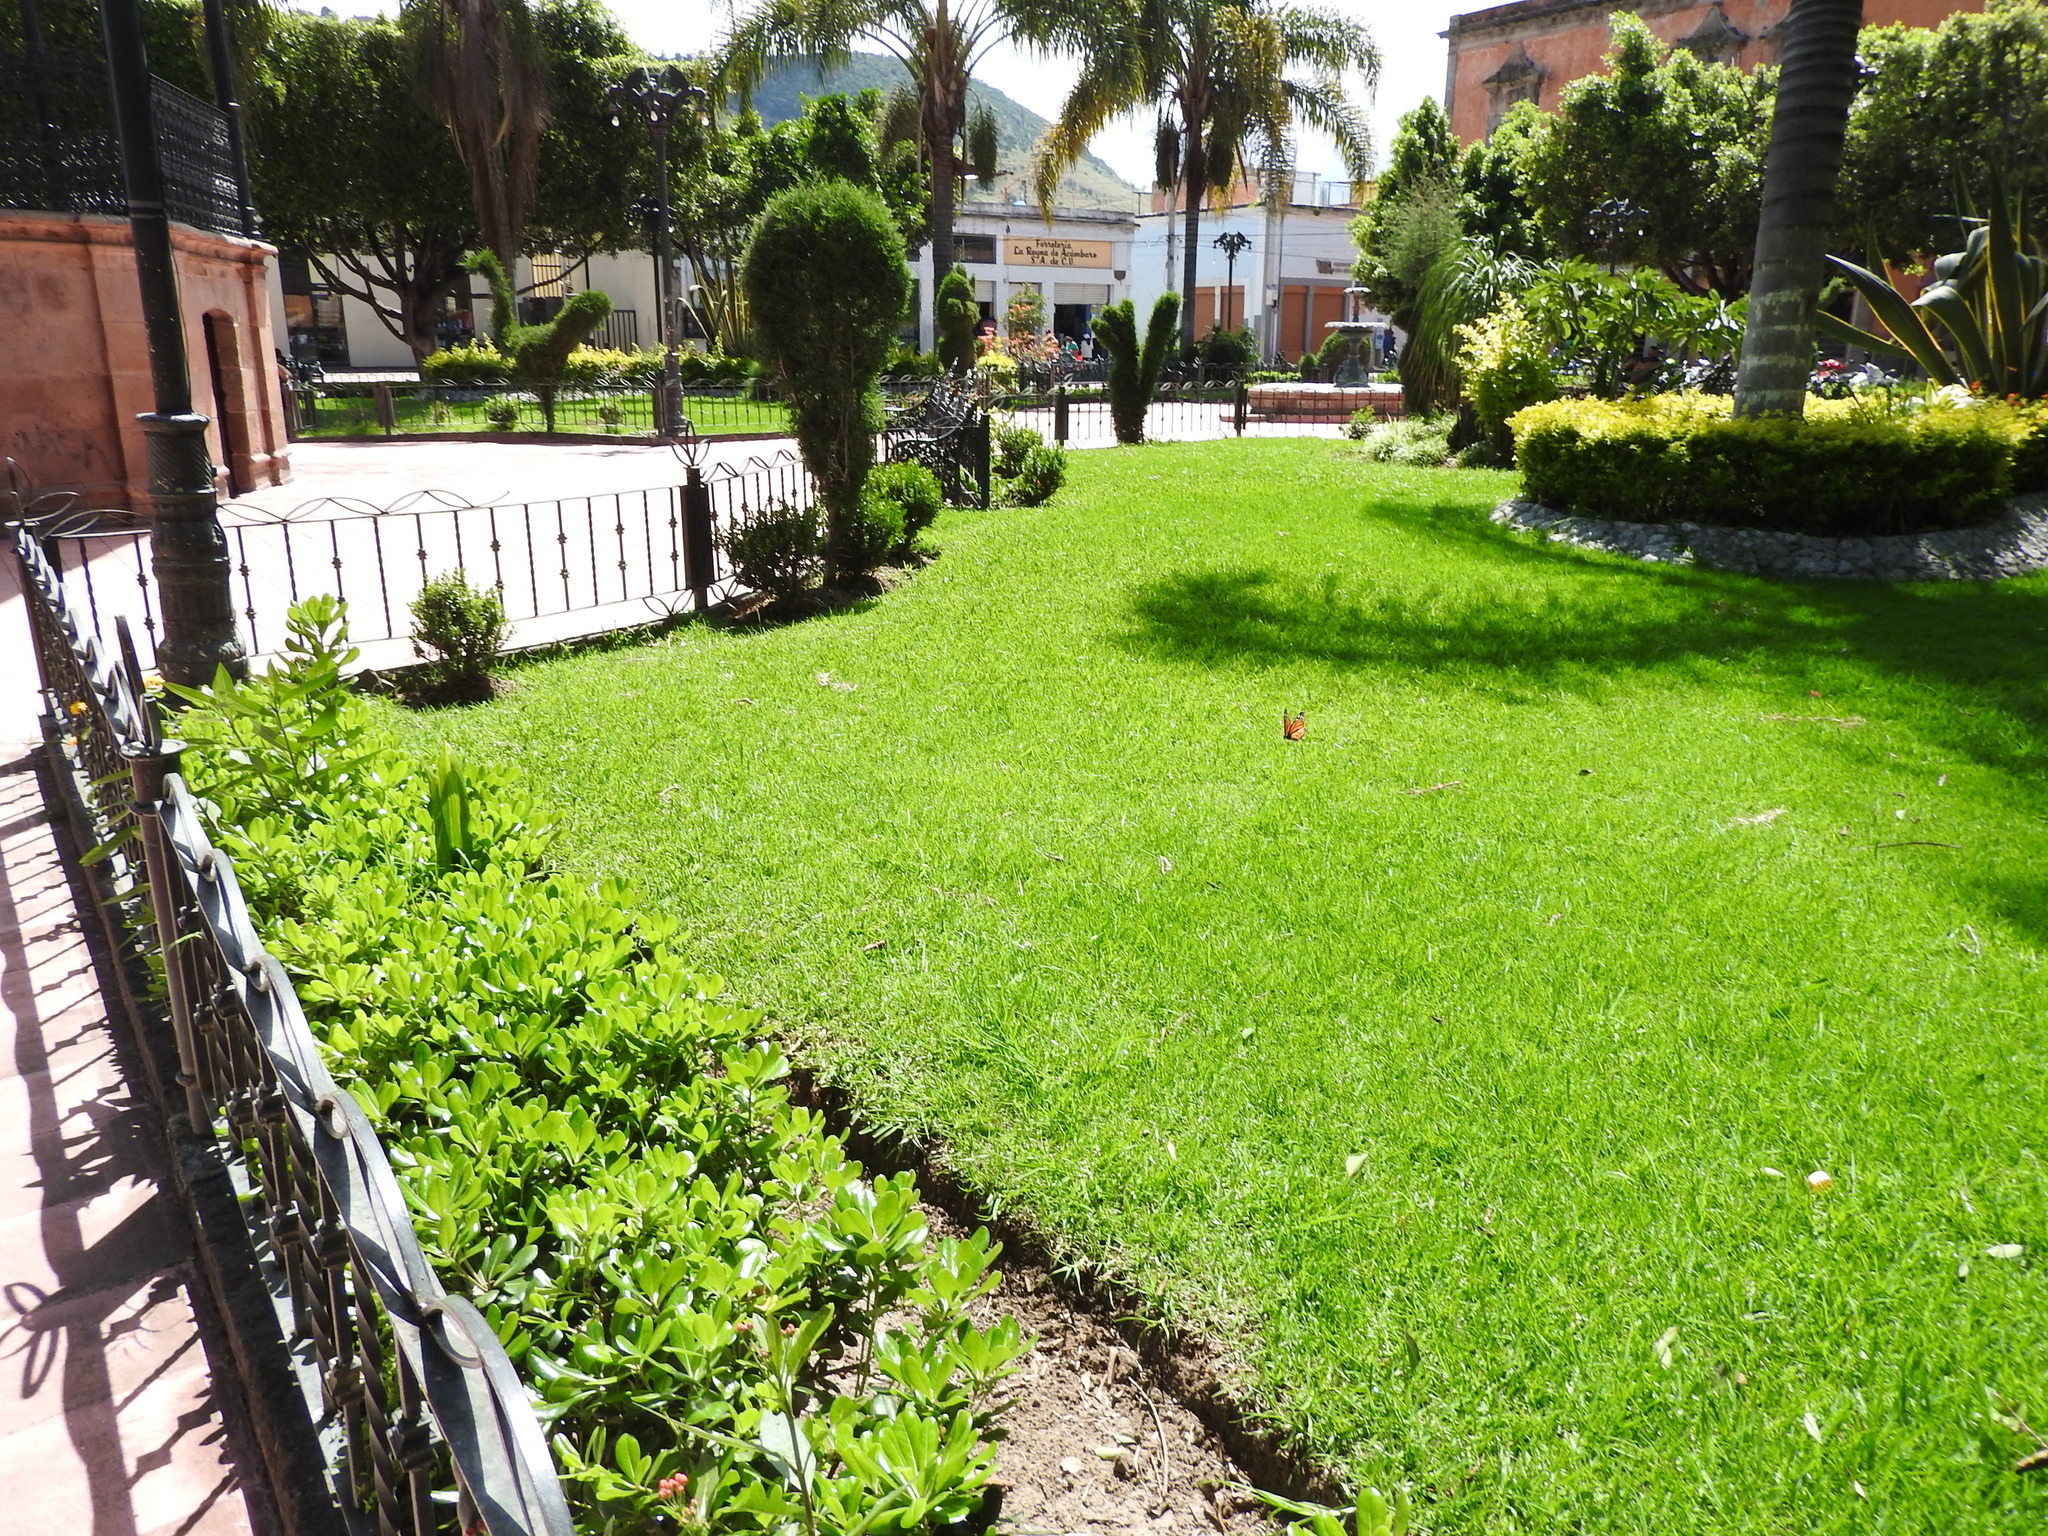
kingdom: Animalia
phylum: Arthropoda
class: Insecta
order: Lepidoptera
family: Nymphalidae
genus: Danaus
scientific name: Danaus plexippus
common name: Monarch
